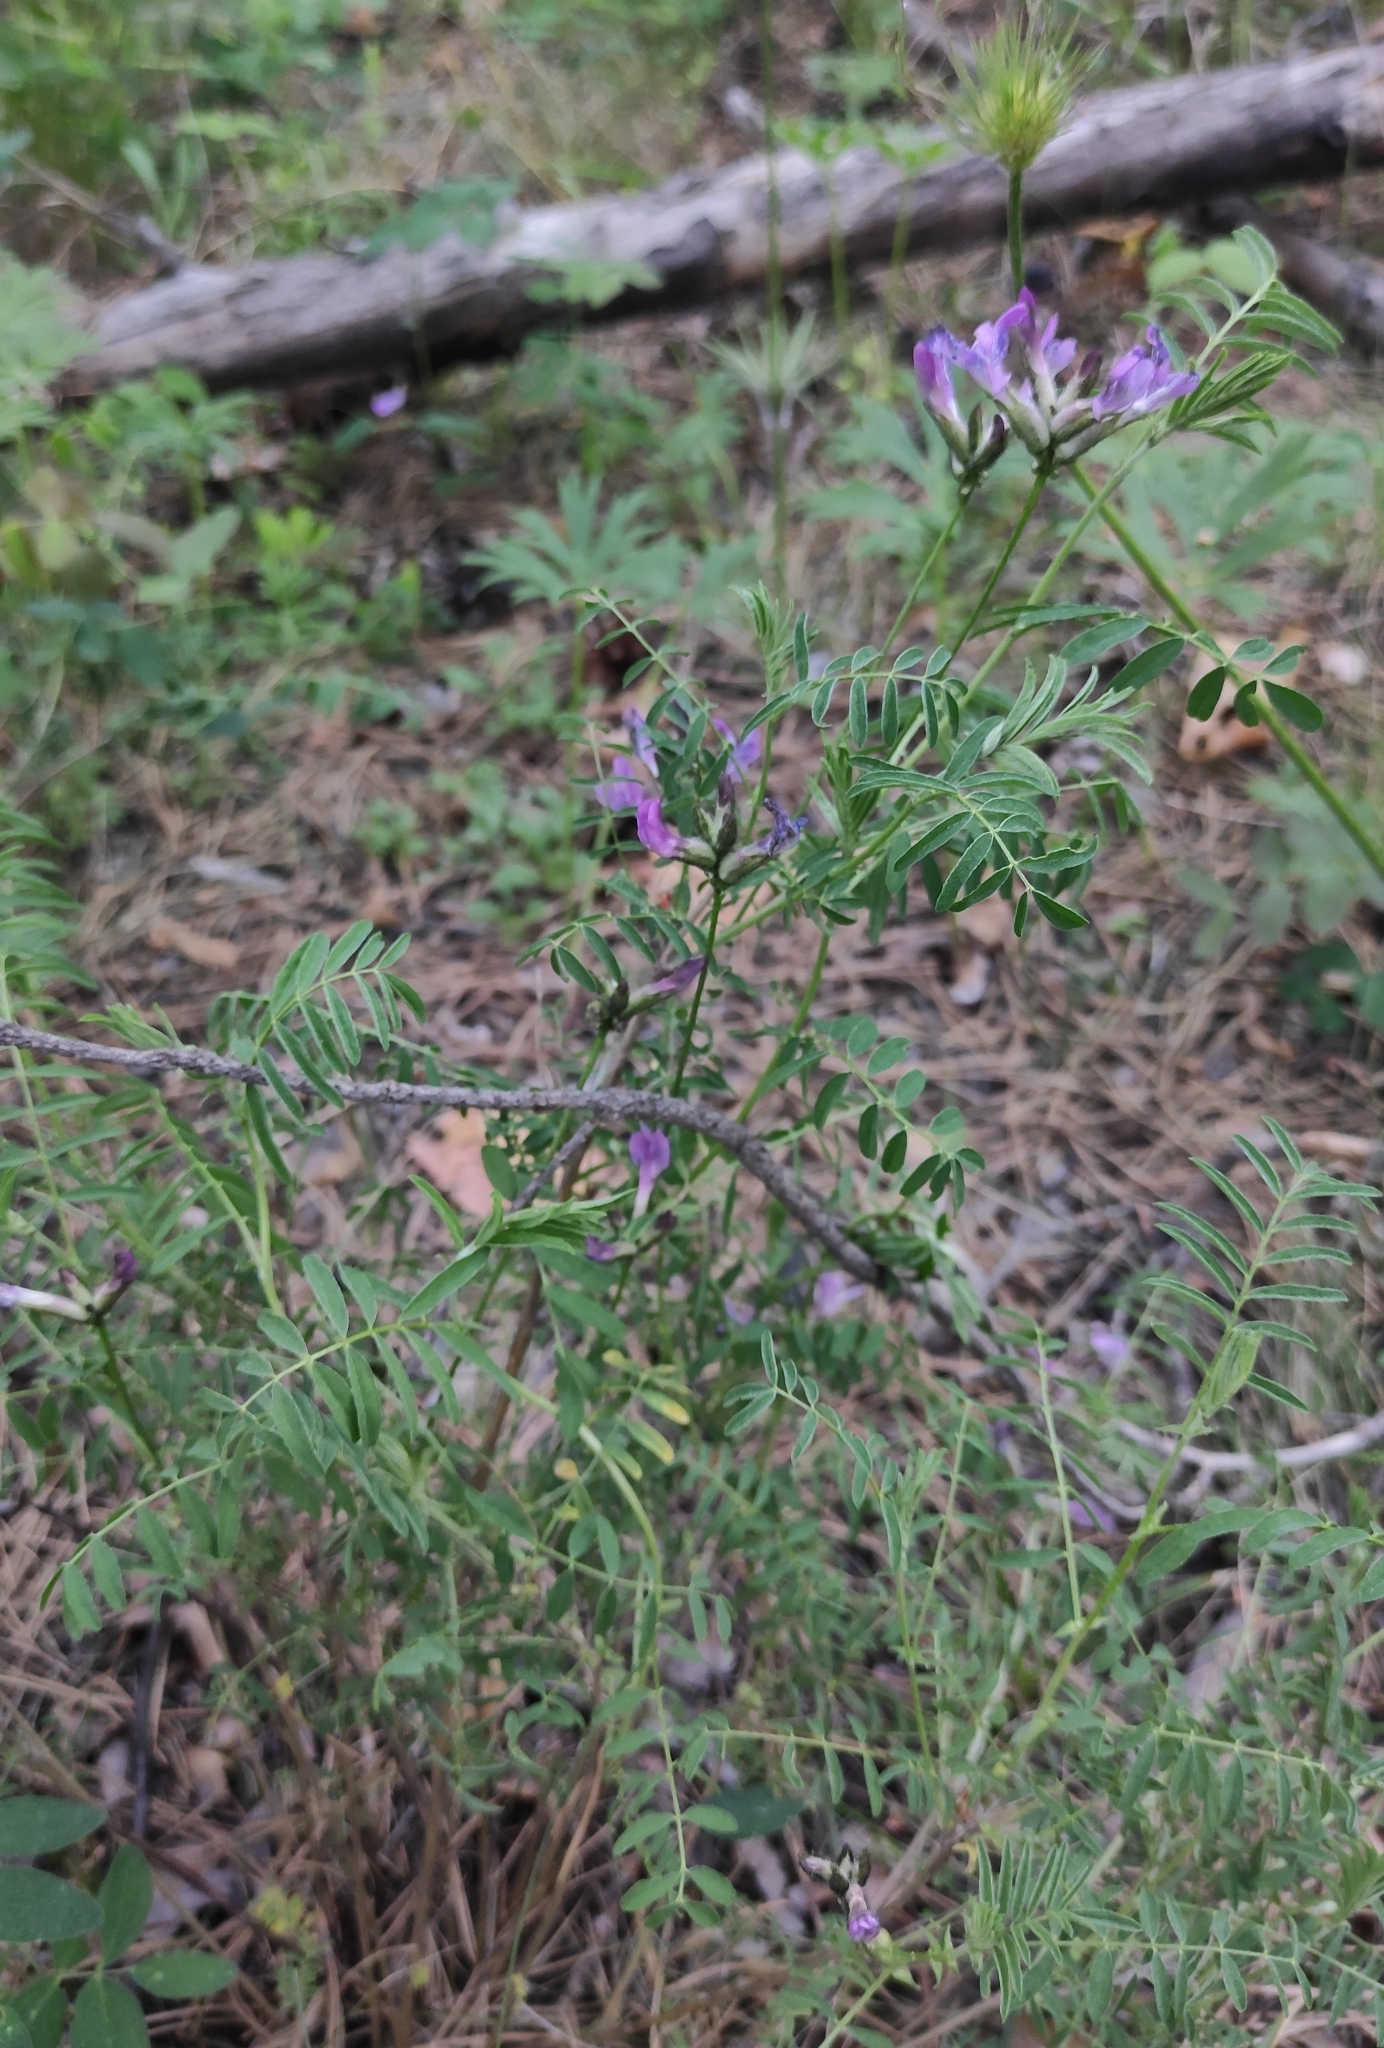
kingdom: Plantae
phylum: Tracheophyta
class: Magnoliopsida
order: Fabales
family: Fabaceae
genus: Astragalus
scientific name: Astragalus syriacus
